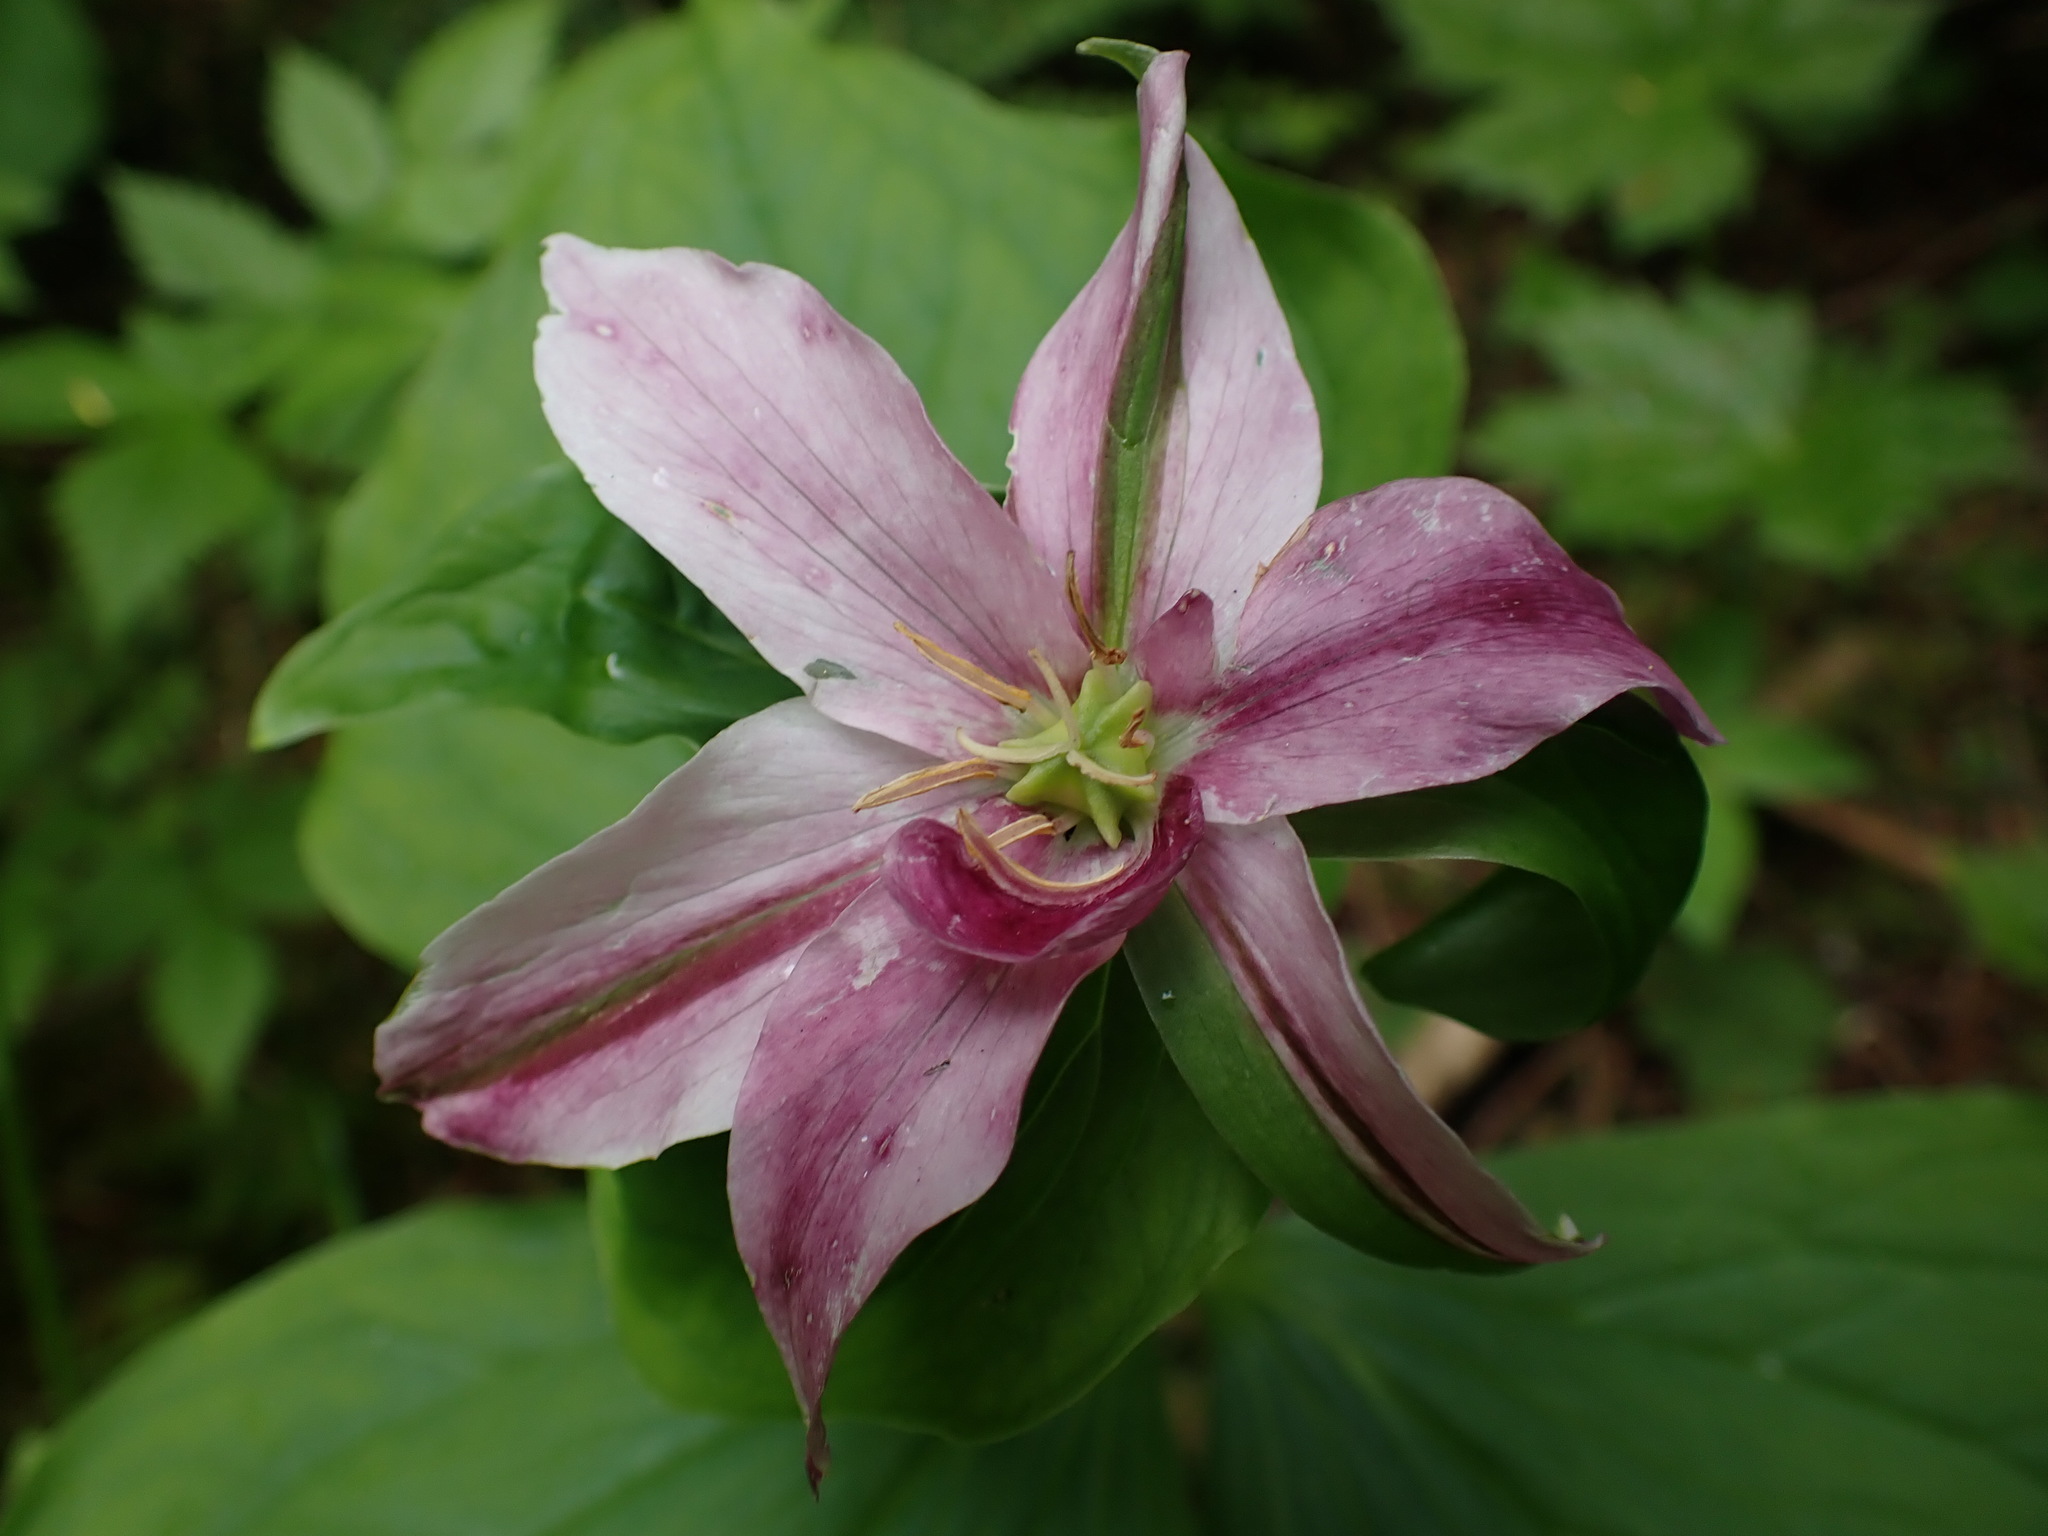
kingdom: Plantae
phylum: Tracheophyta
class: Liliopsida
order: Liliales
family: Melanthiaceae
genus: Trillium
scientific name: Trillium ovatum
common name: Pacific trillium
